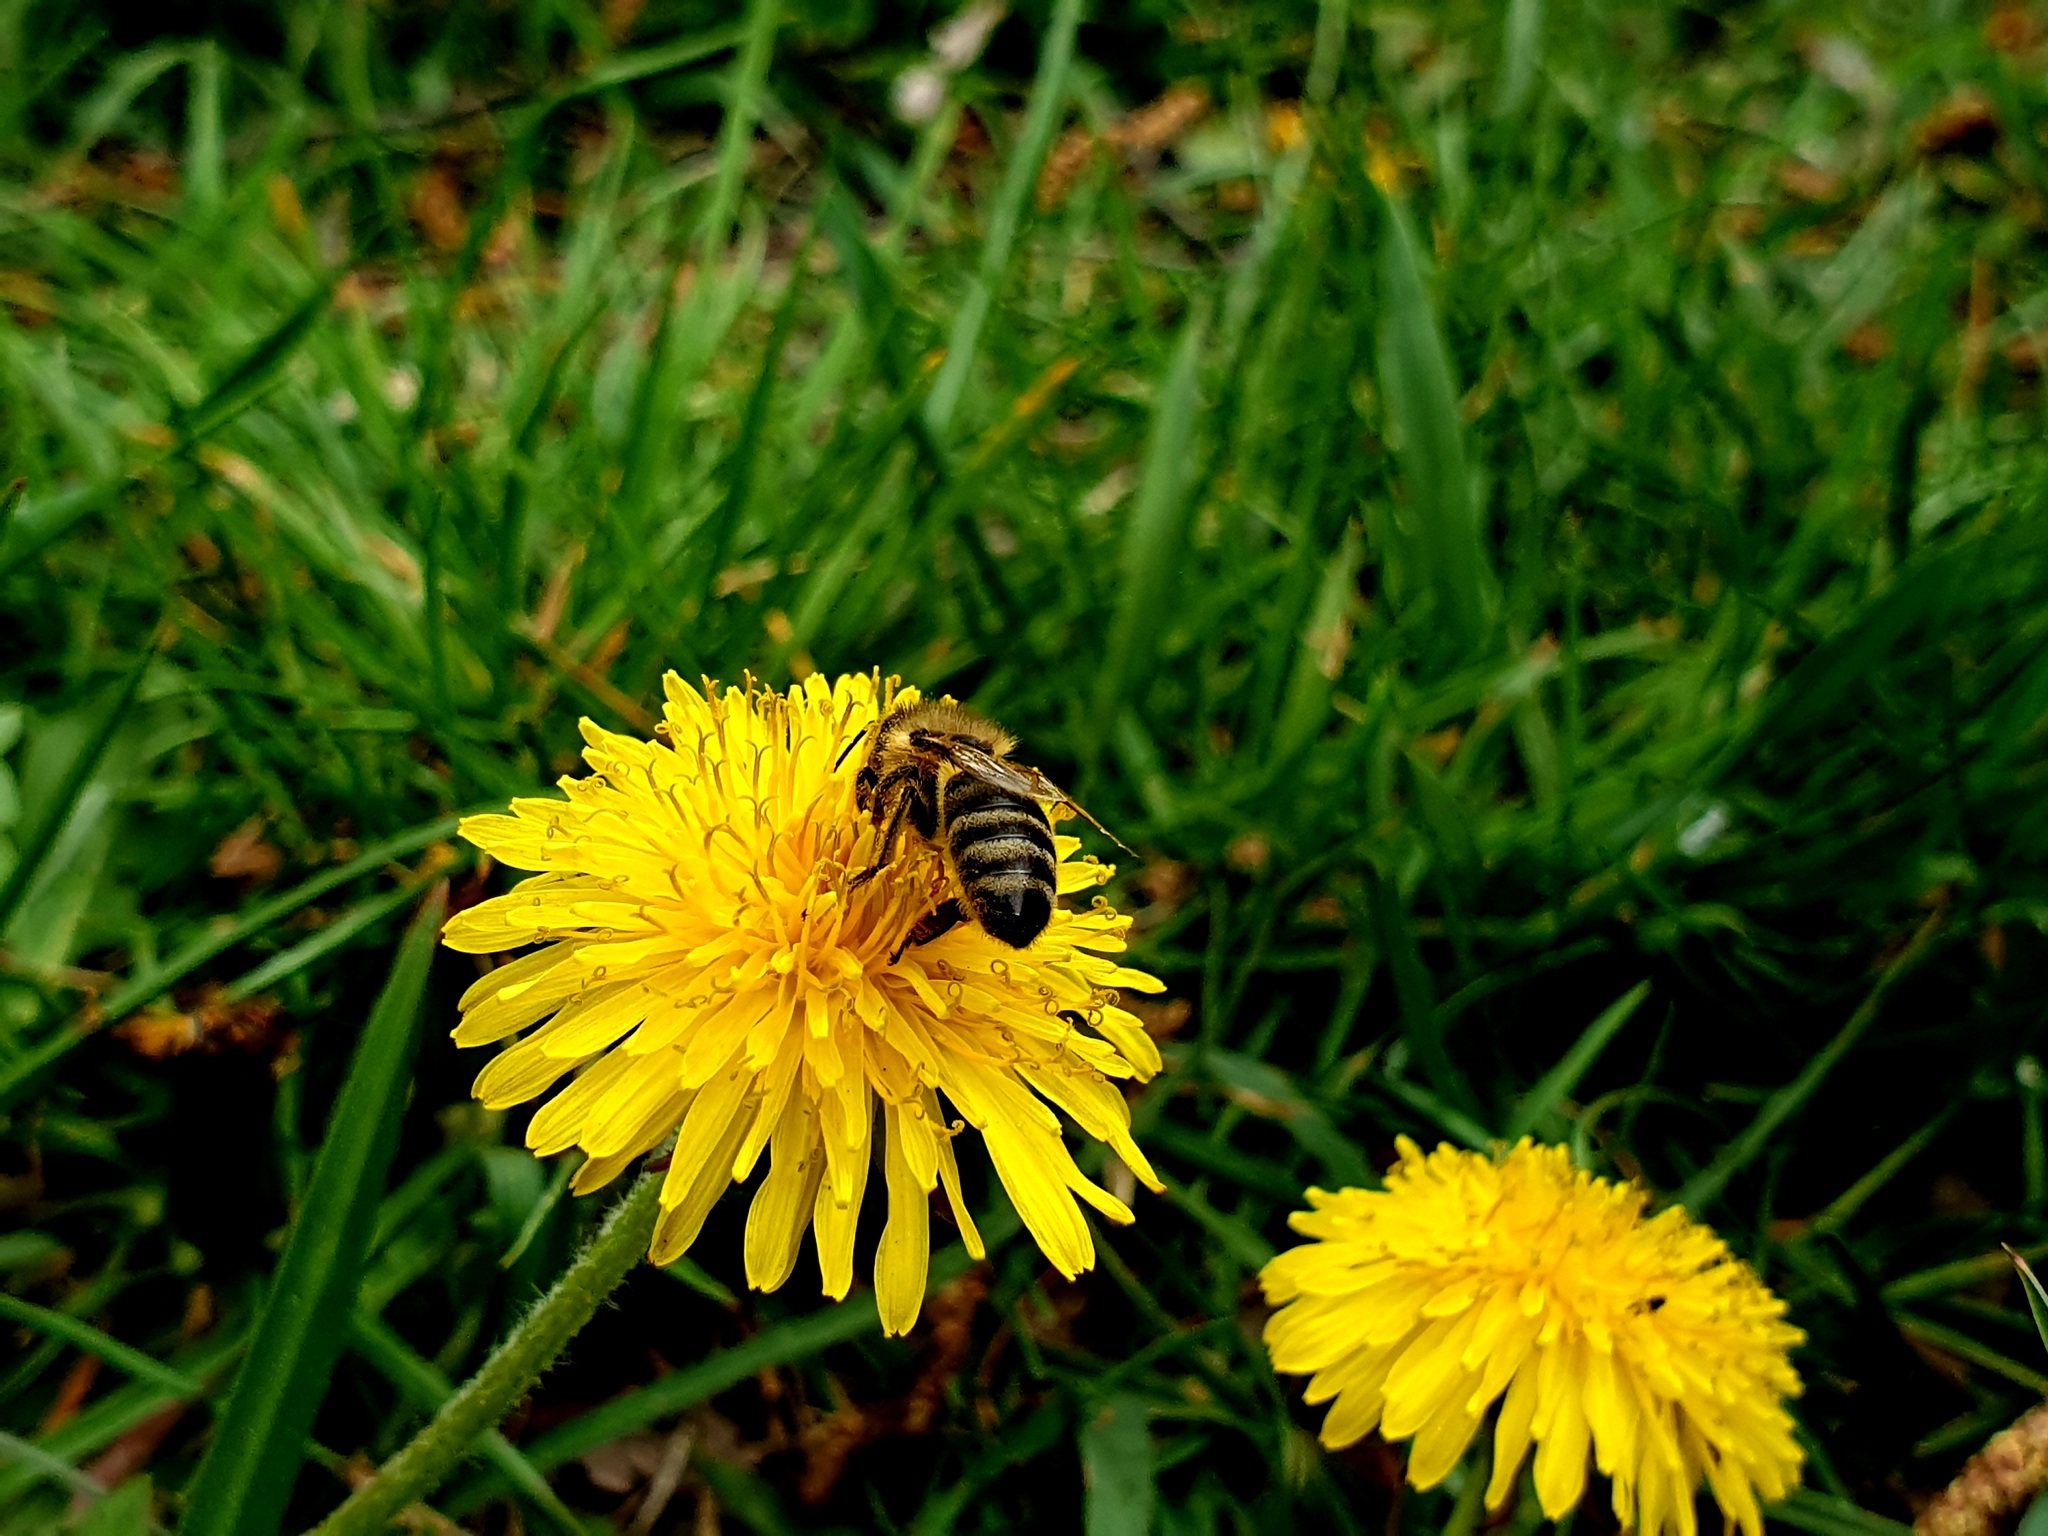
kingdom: Animalia
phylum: Arthropoda
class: Insecta
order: Hymenoptera
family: Apidae
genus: Apis
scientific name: Apis mellifera
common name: Honey bee
